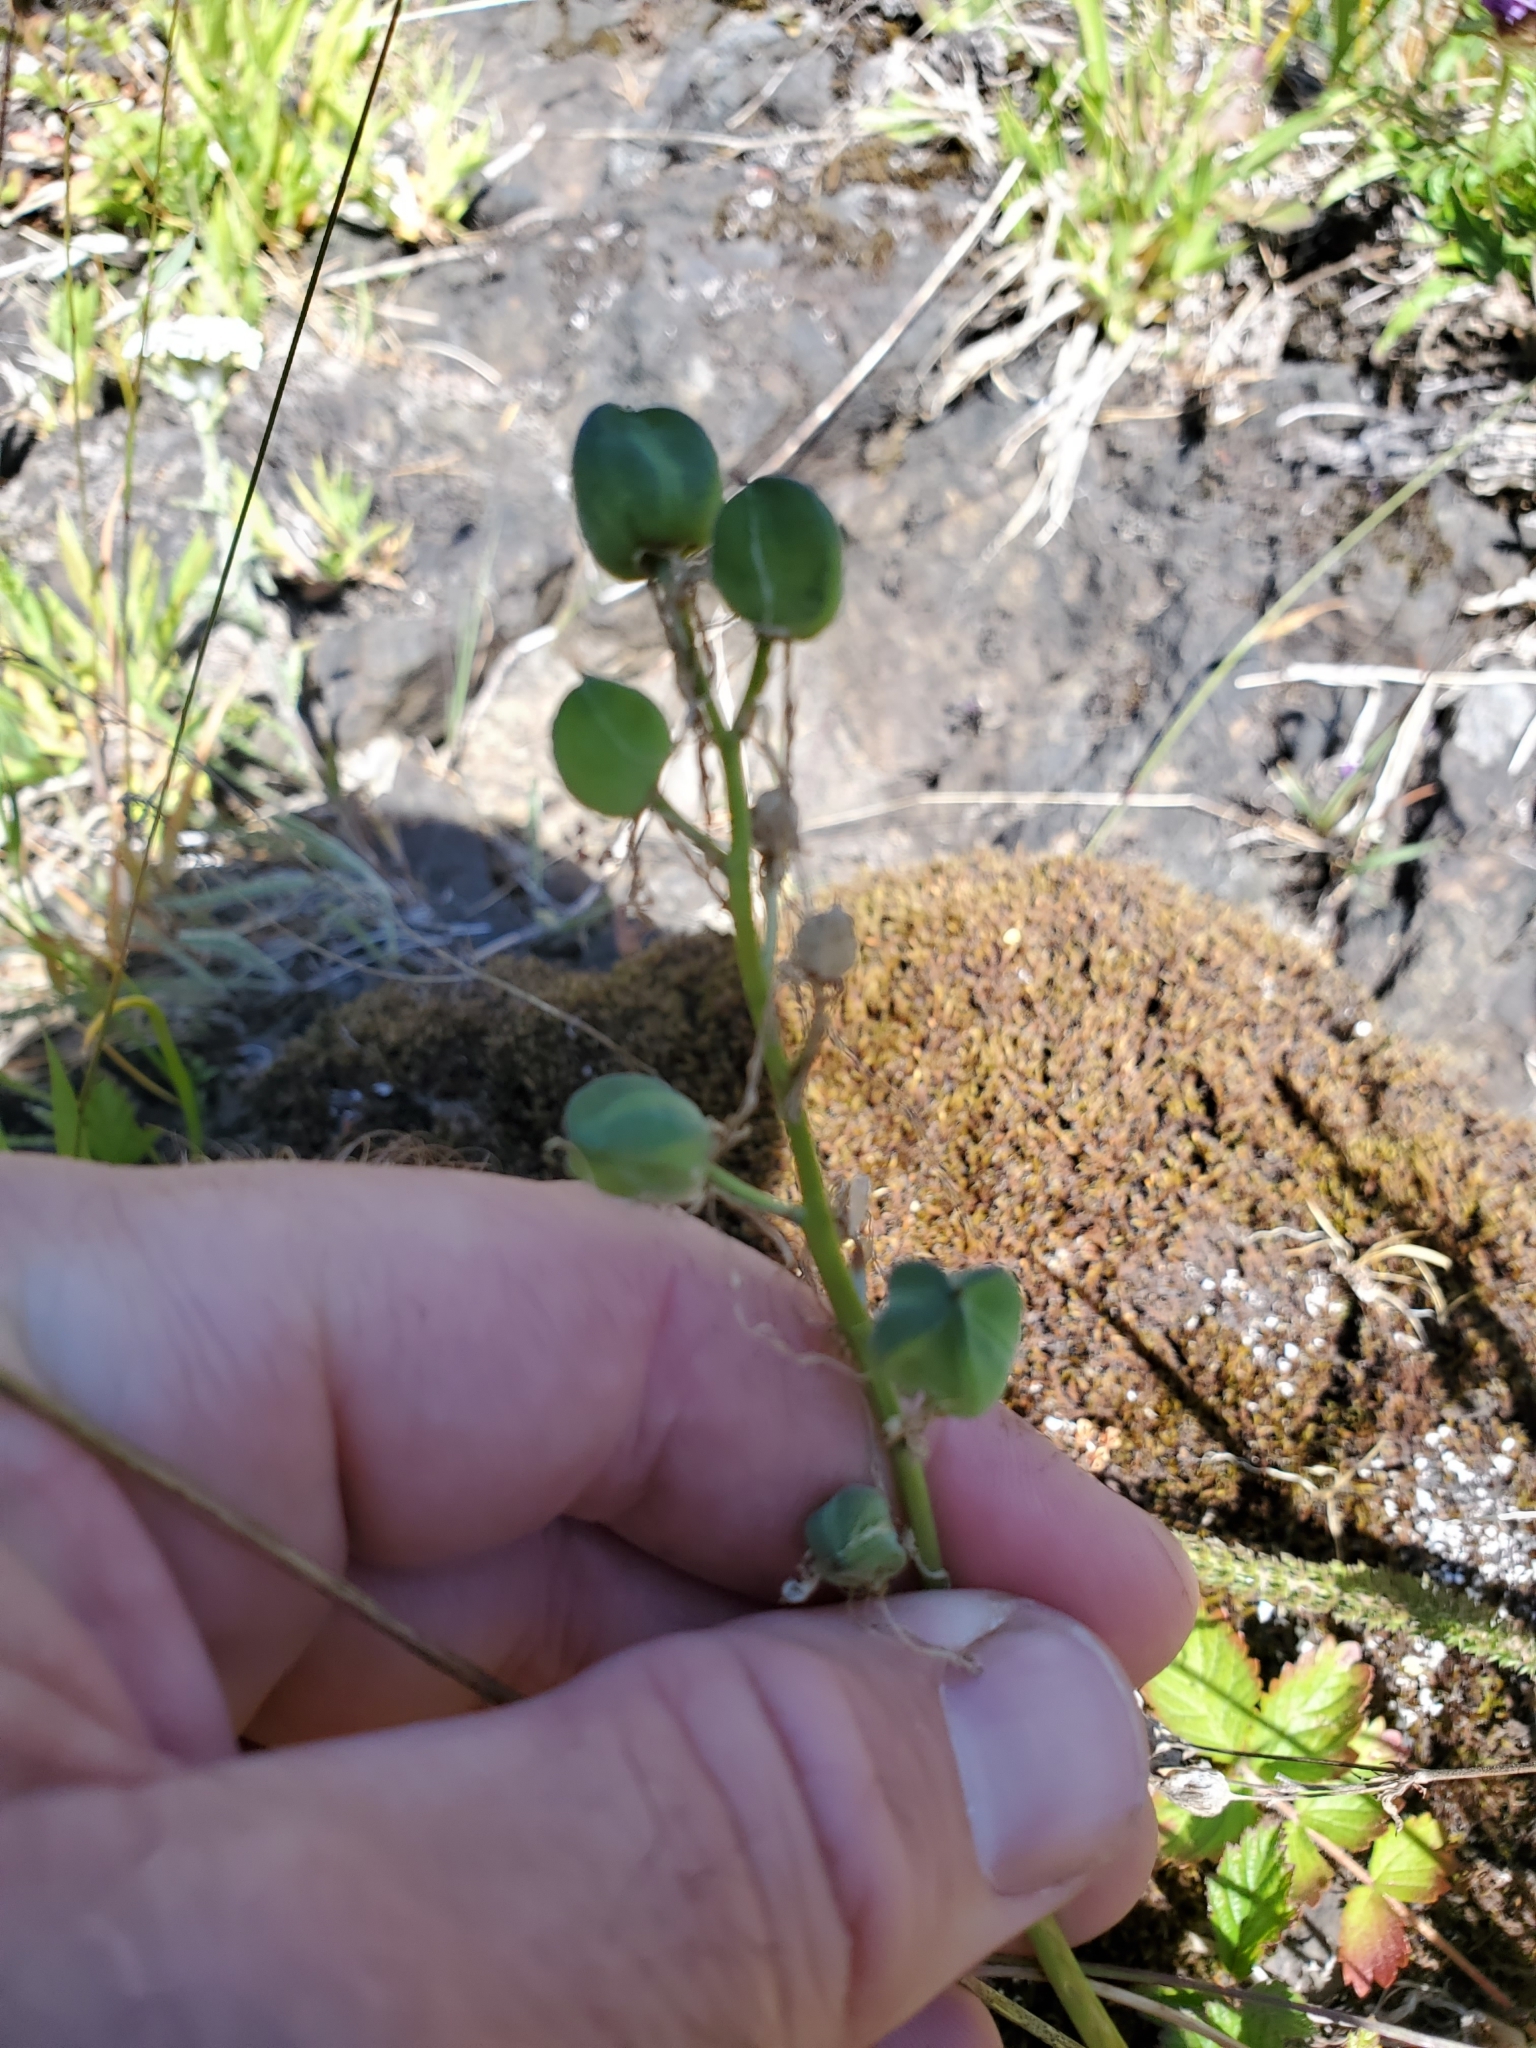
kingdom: Plantae
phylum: Tracheophyta
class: Liliopsida
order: Asparagales
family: Asparagaceae
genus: Camassia
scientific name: Camassia quamash
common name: Common camas
